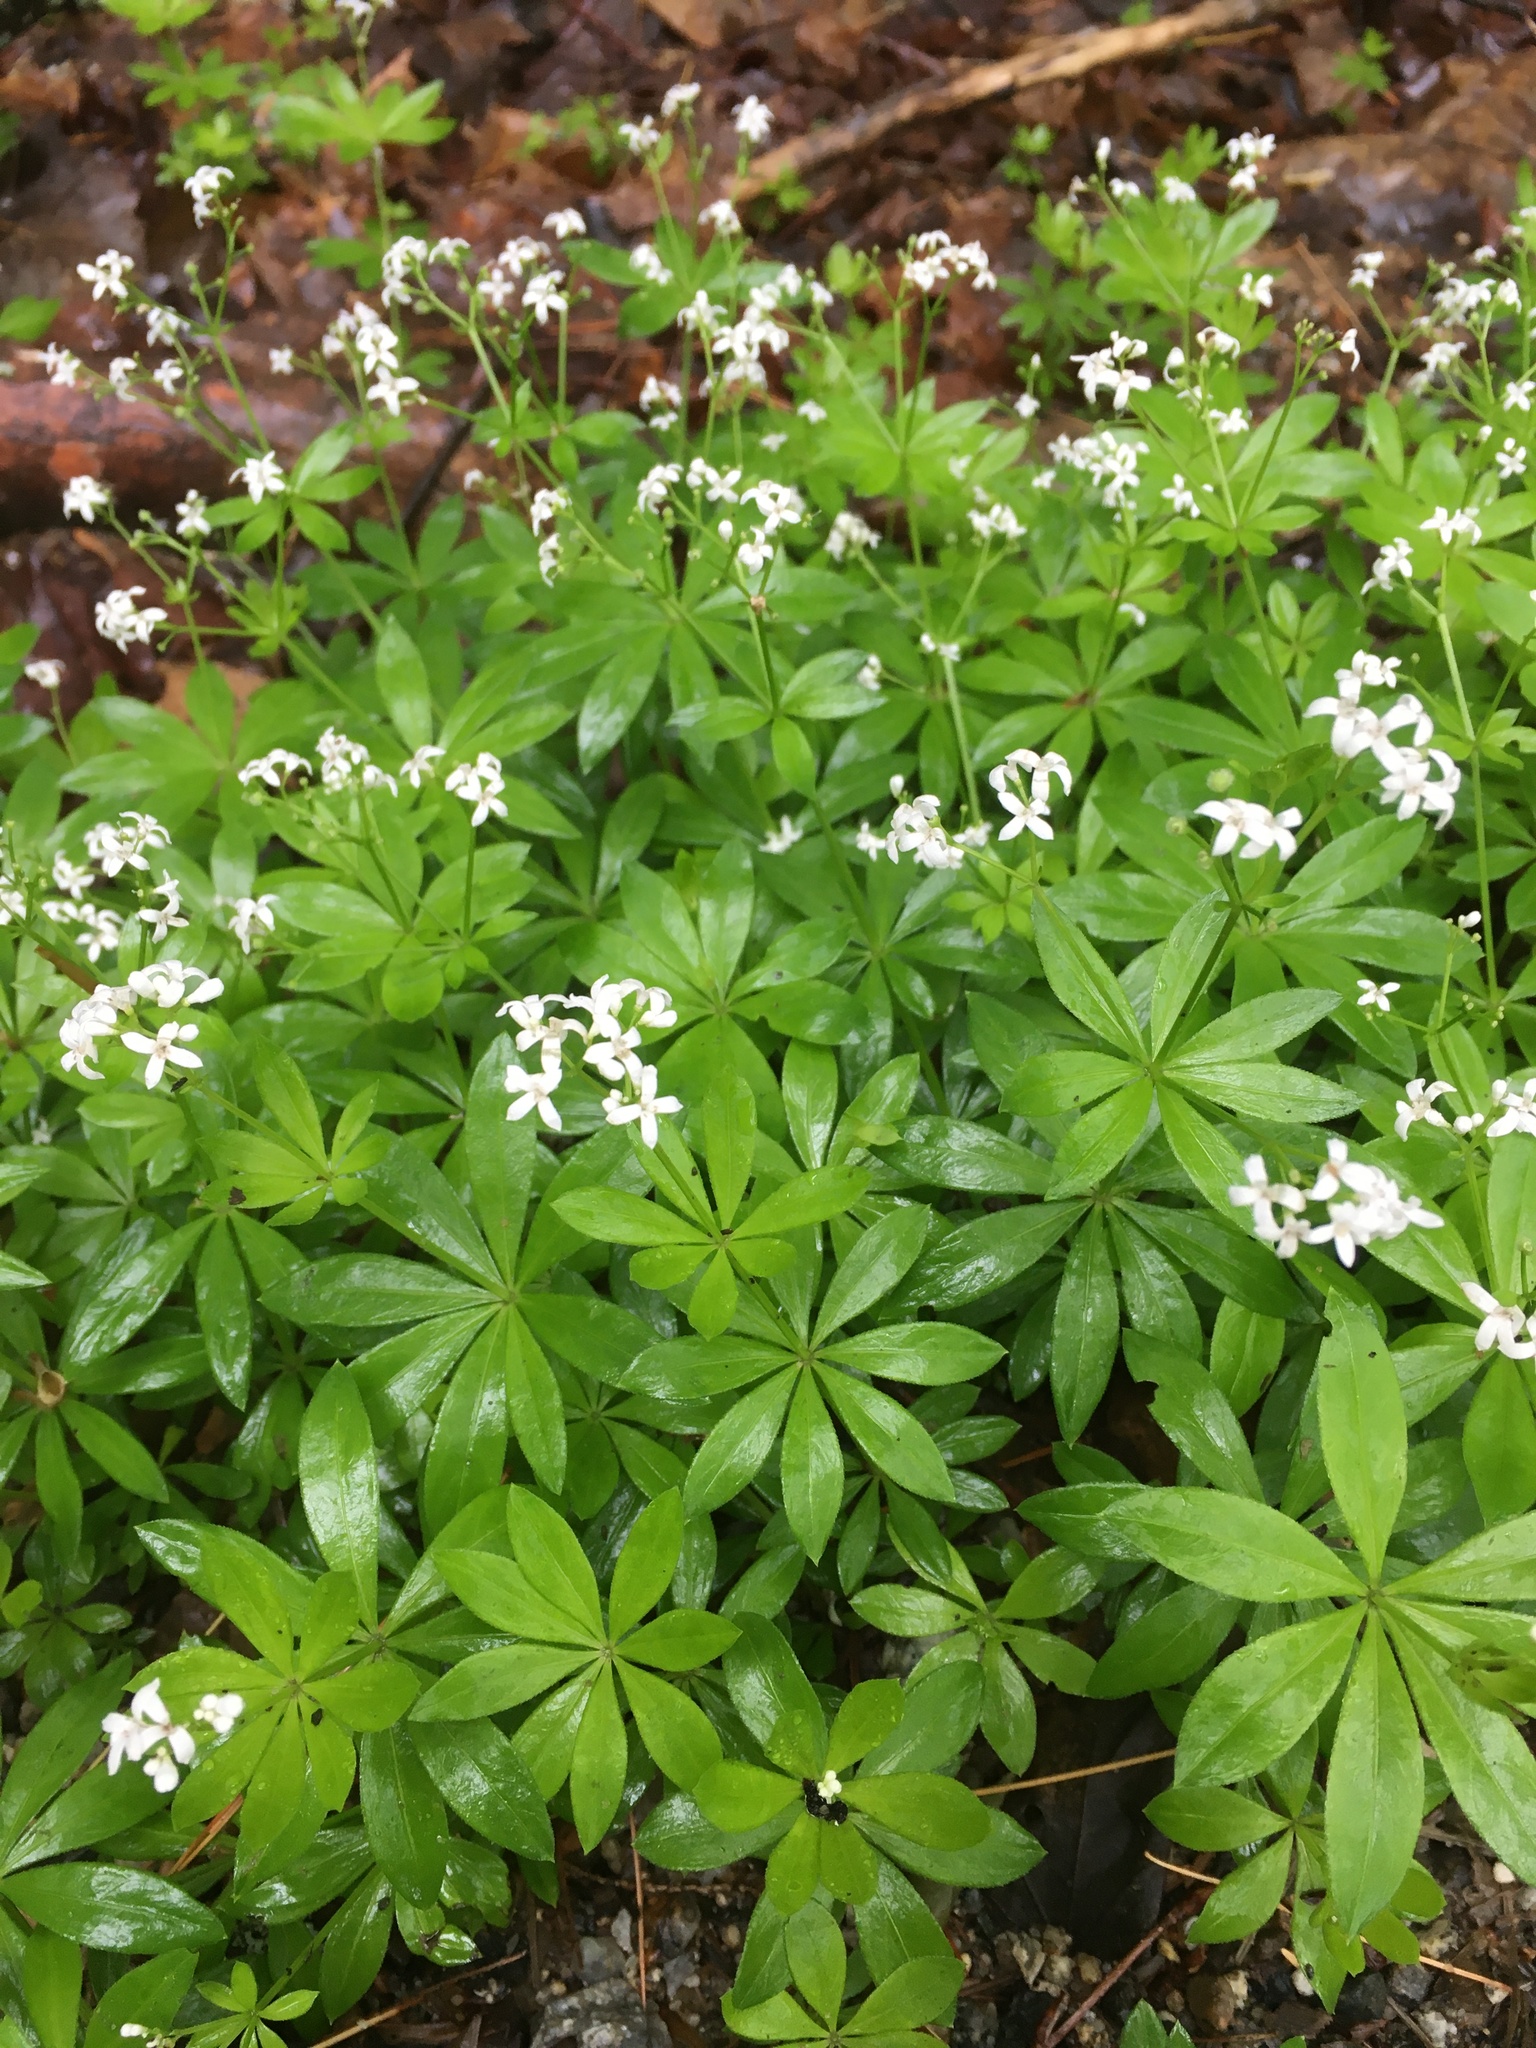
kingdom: Plantae
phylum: Tracheophyta
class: Magnoliopsida
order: Gentianales
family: Rubiaceae
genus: Galium
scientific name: Galium odoratum
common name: Sweet woodruff
